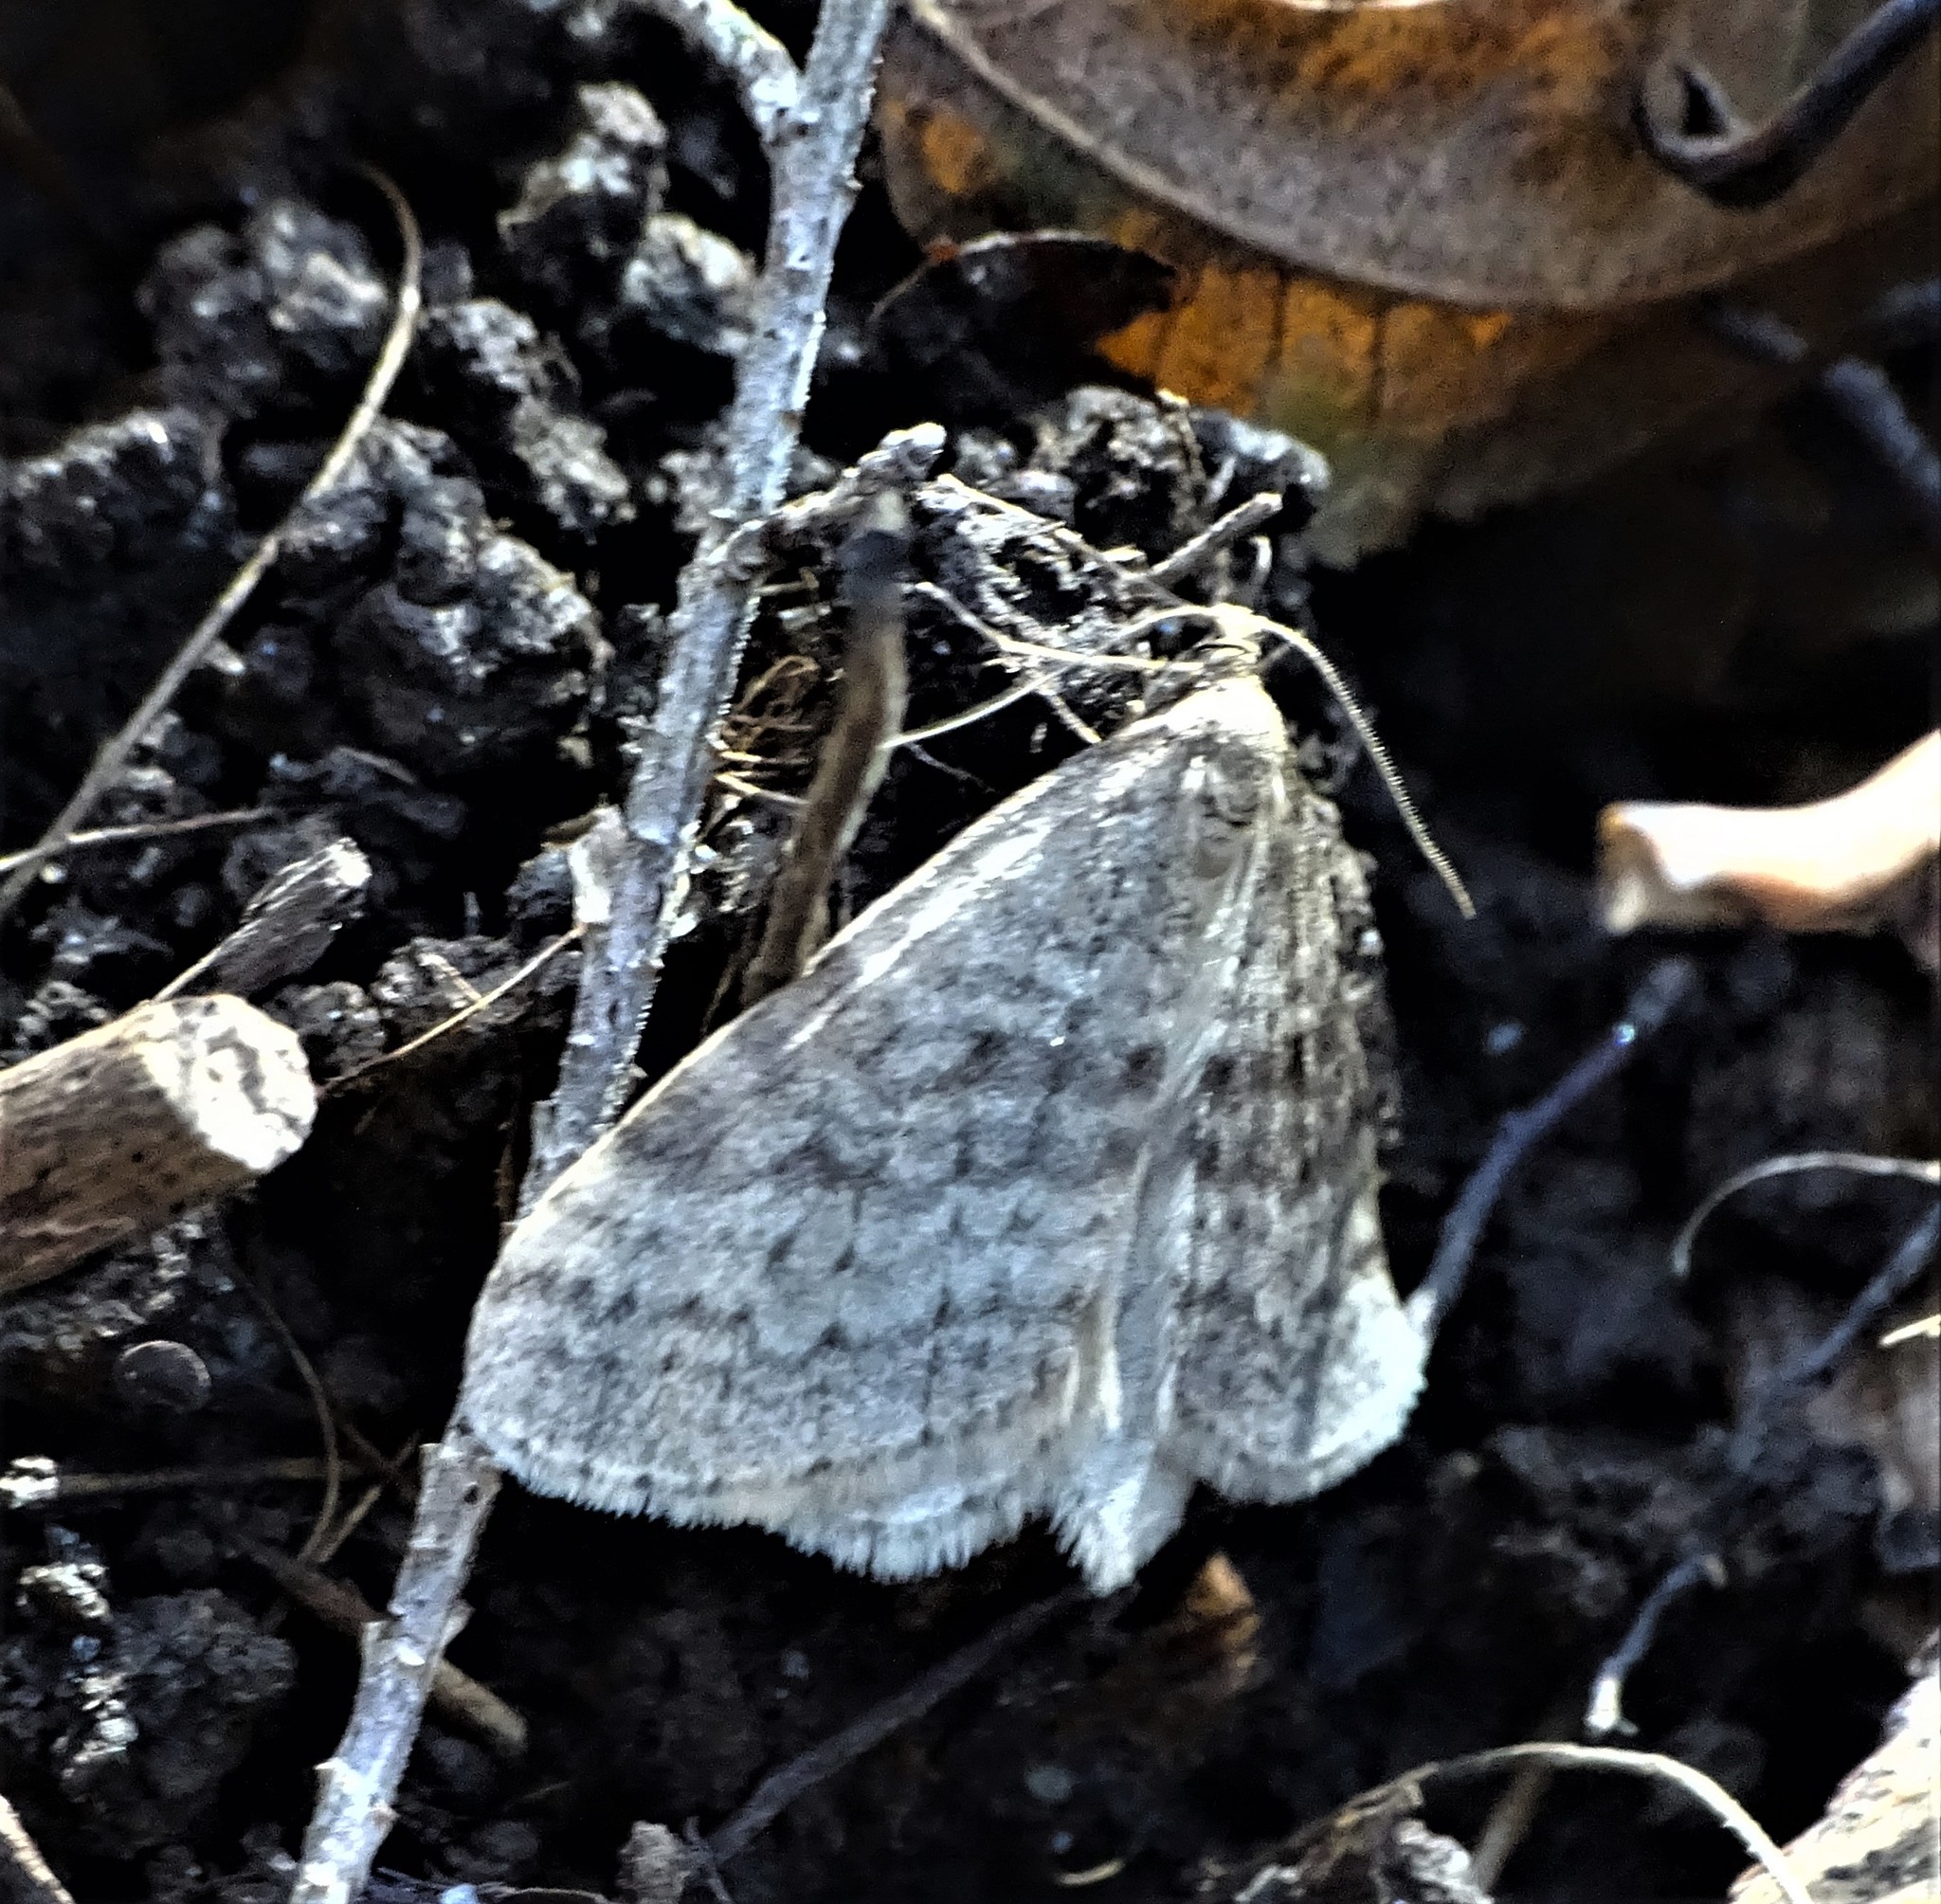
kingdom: Animalia
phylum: Arthropoda
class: Insecta
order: Lepidoptera
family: Geometridae
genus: Operophtera
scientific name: Operophtera bruceata
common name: Bruce spanworm
